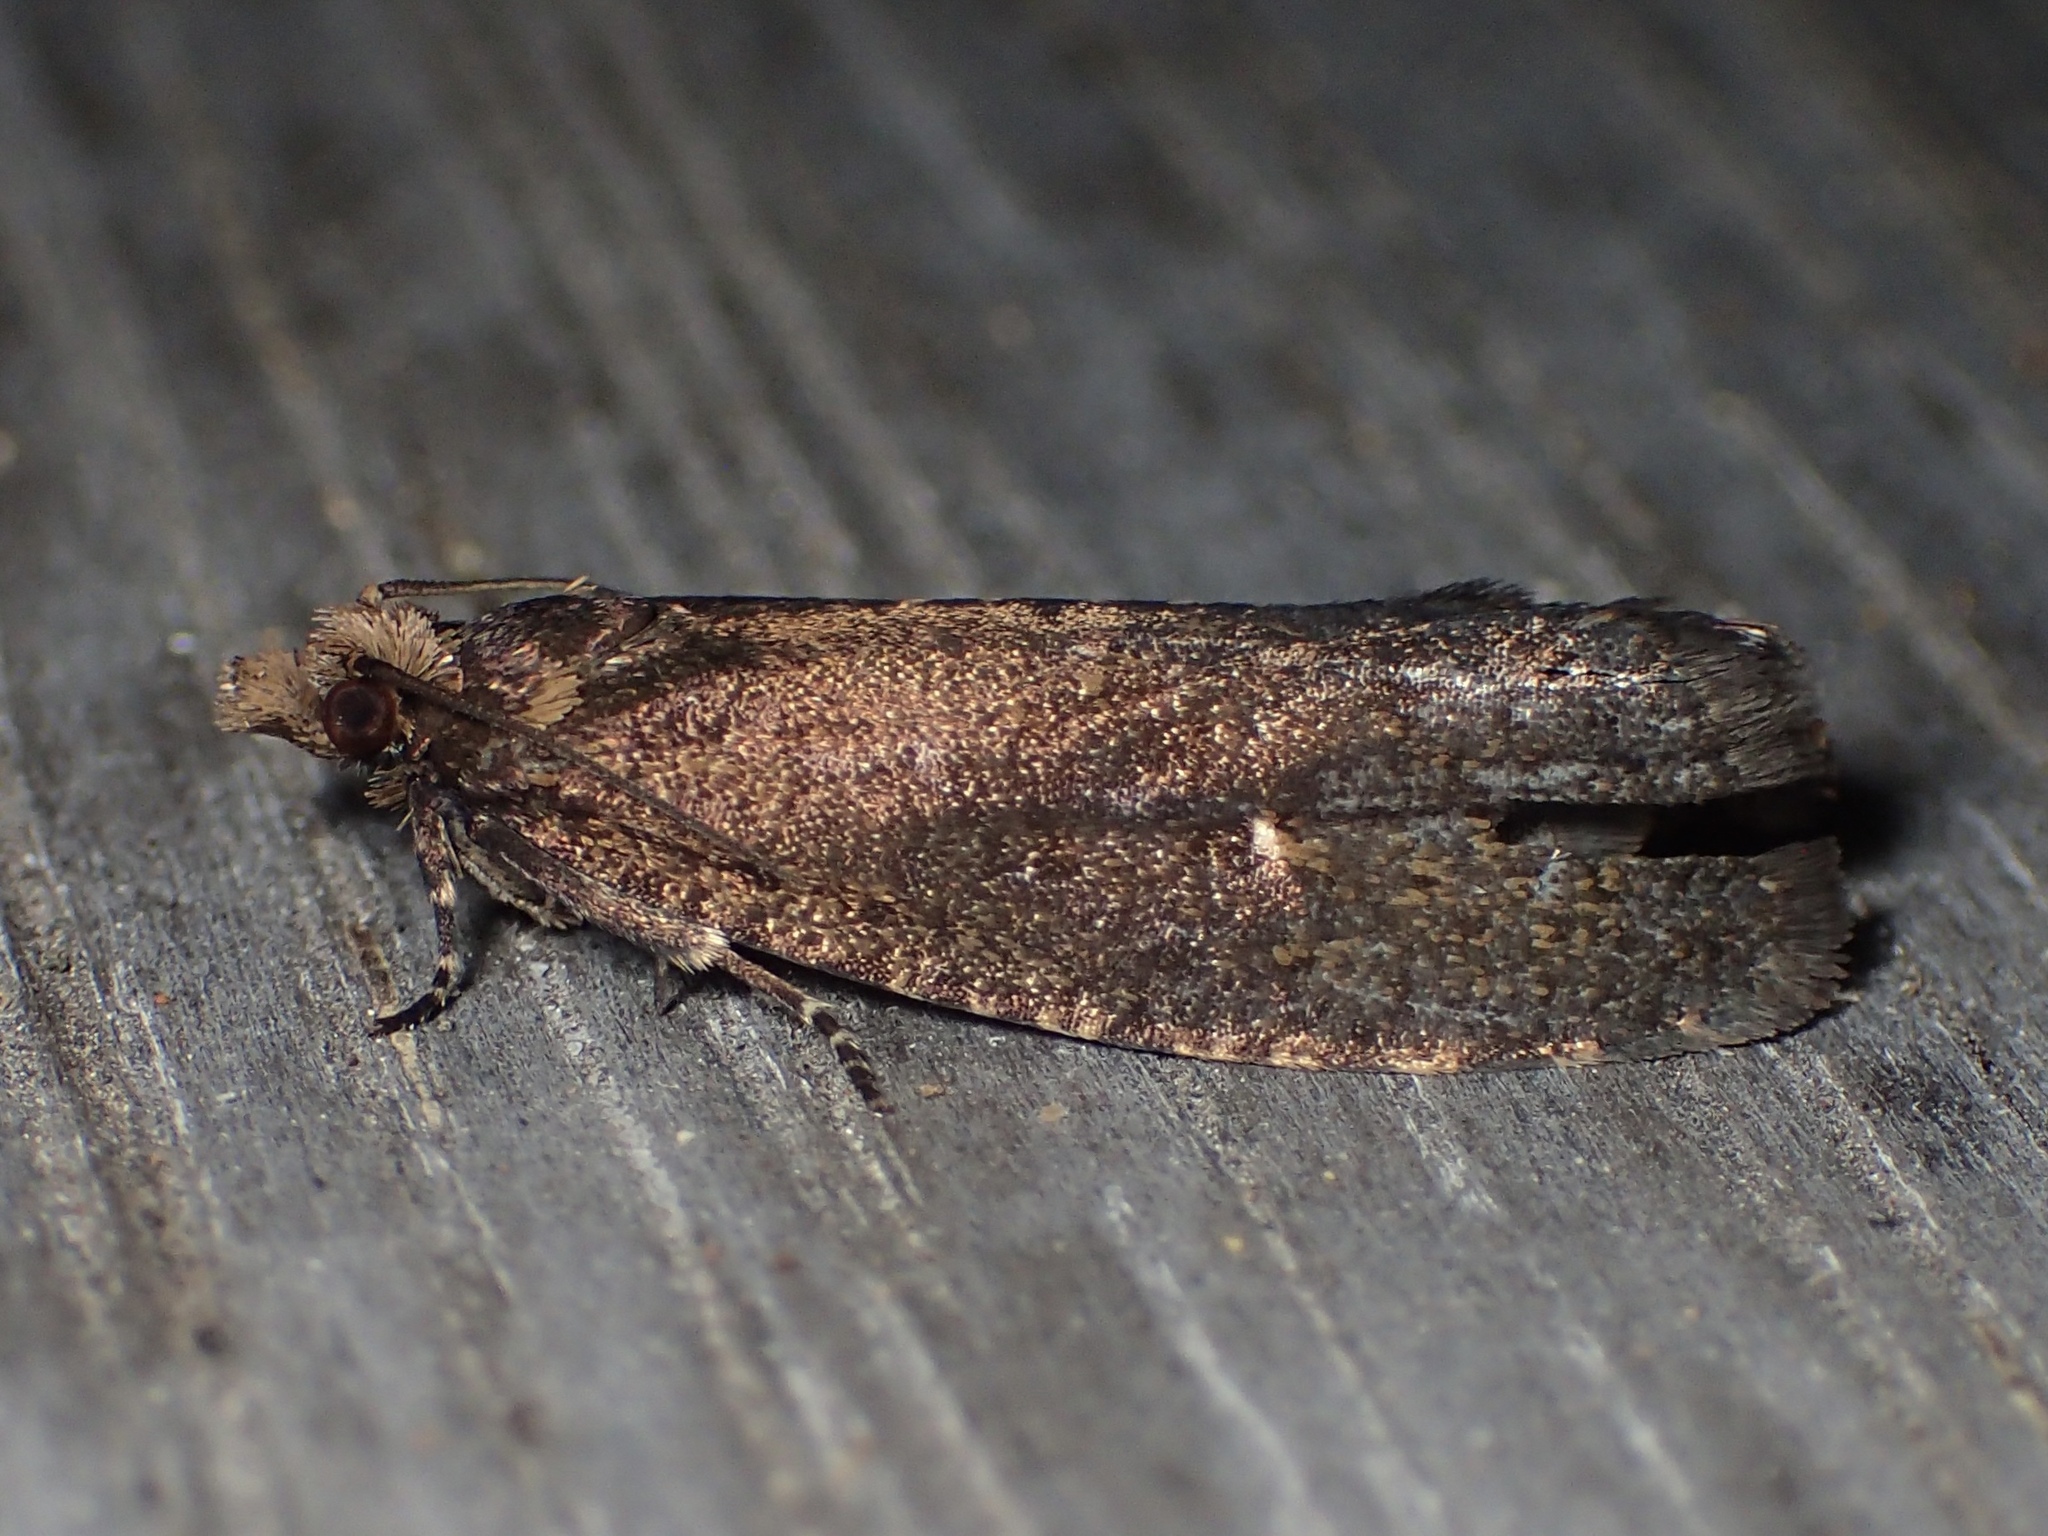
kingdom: Animalia
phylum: Arthropoda
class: Insecta
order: Lepidoptera
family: Tortricidae
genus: Cryptaspasma
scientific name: Cryptaspasma querula
